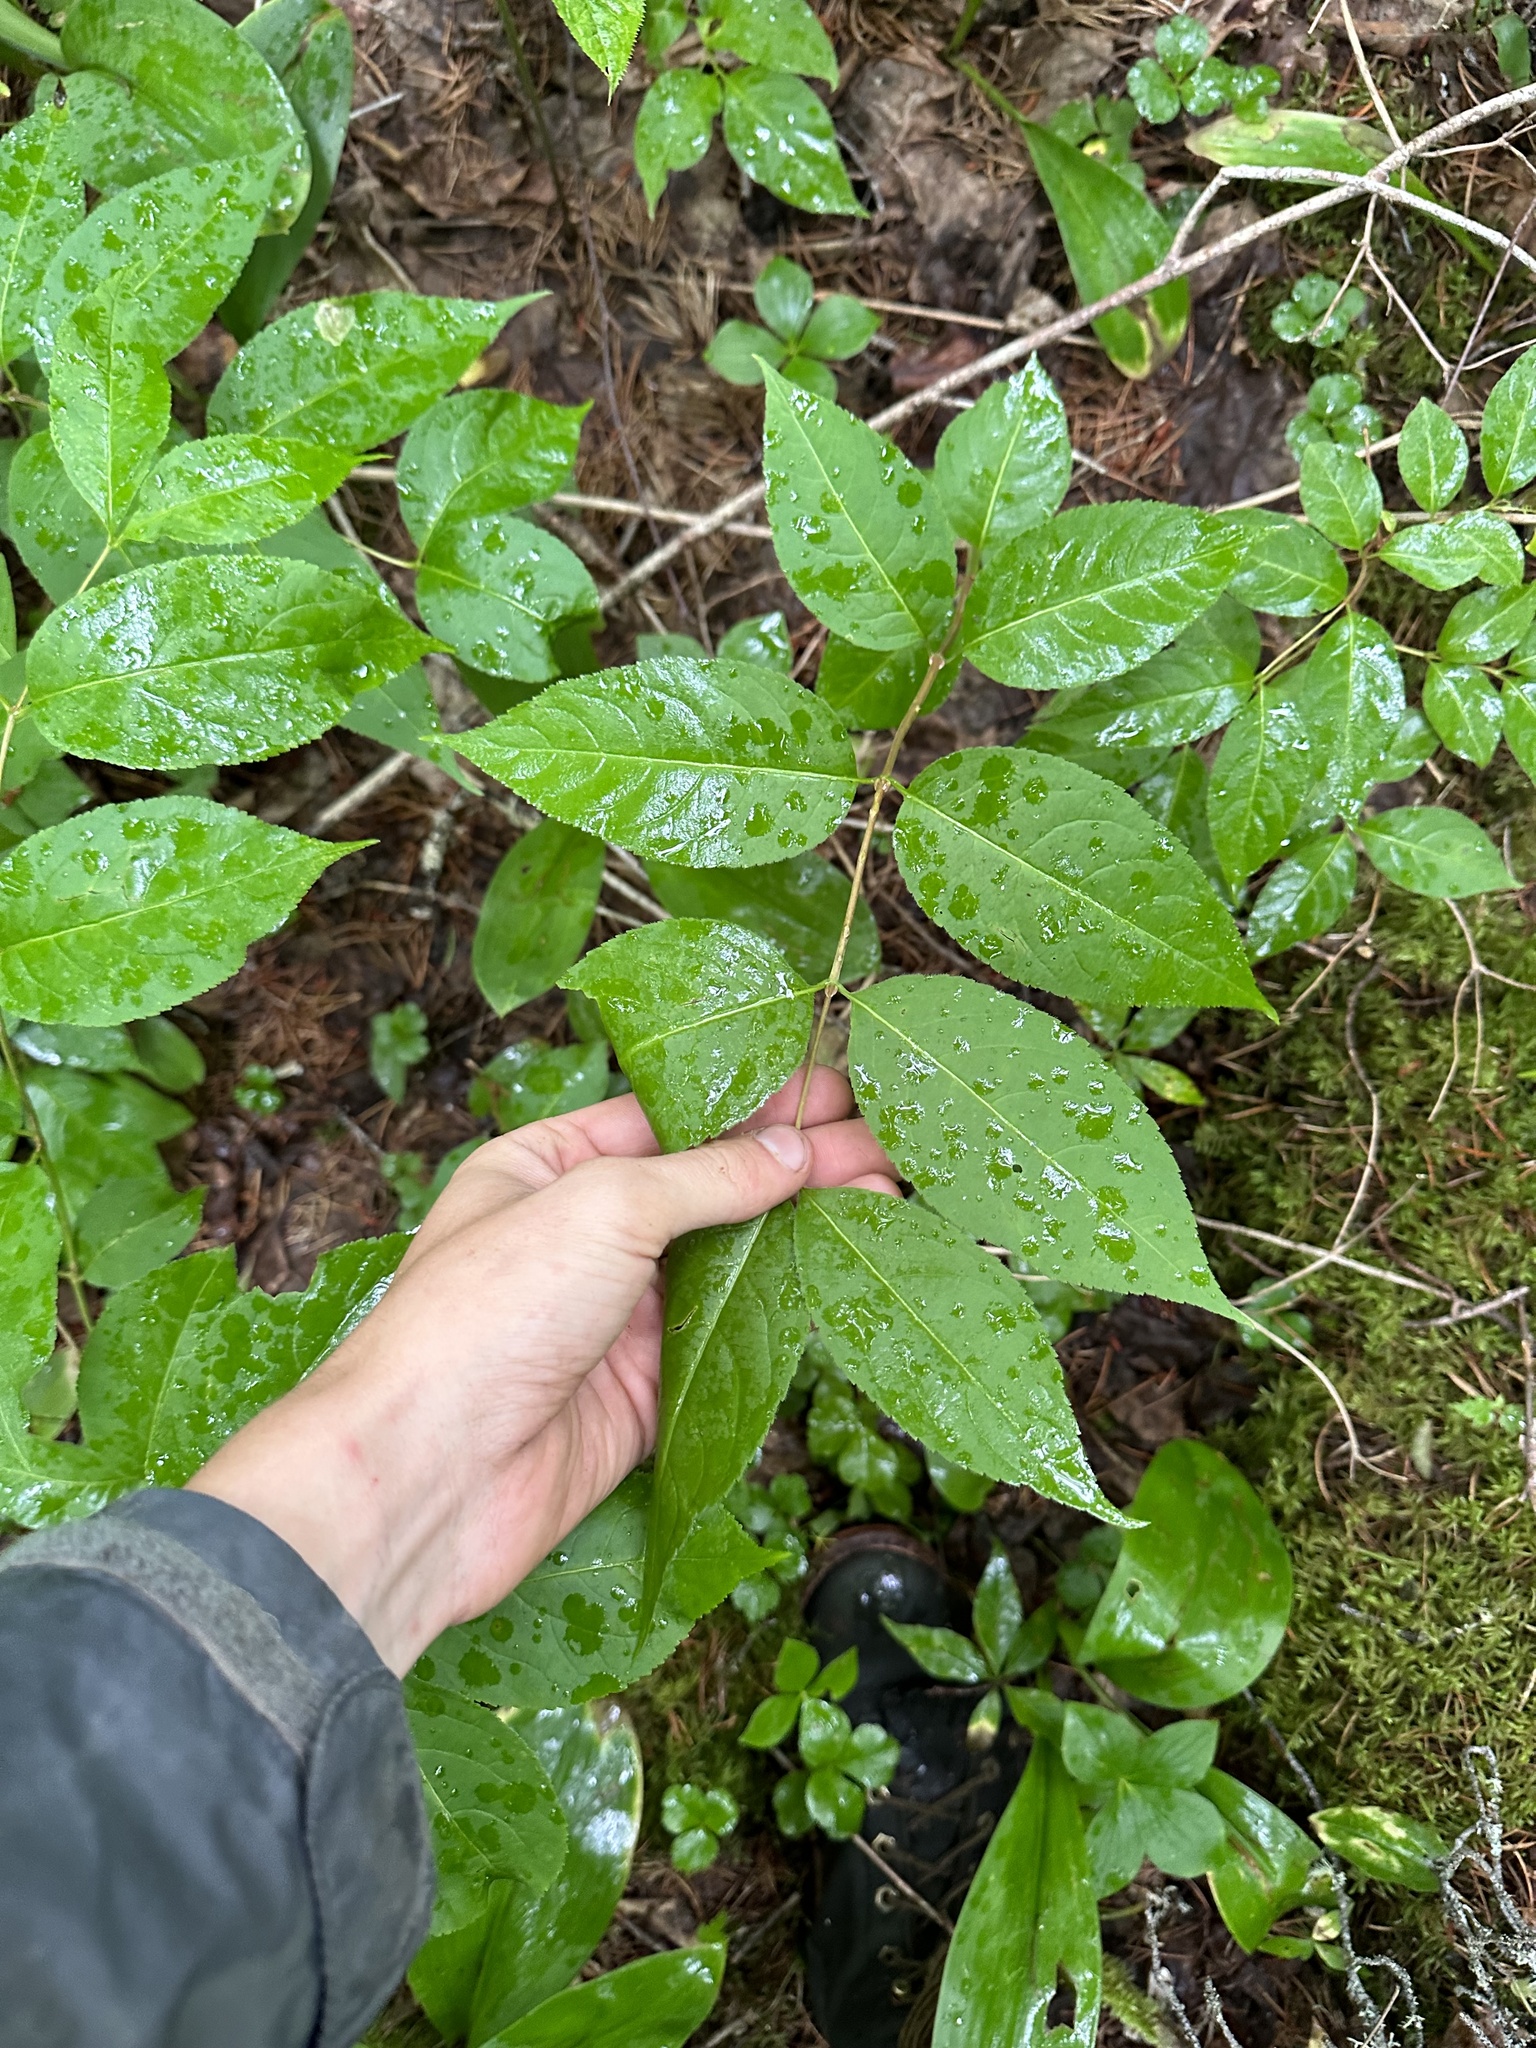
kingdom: Plantae
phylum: Tracheophyta
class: Magnoliopsida
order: Dipsacales
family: Caprifoliaceae
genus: Diervilla
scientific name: Diervilla lonicera
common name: Bush-honeysuckle
